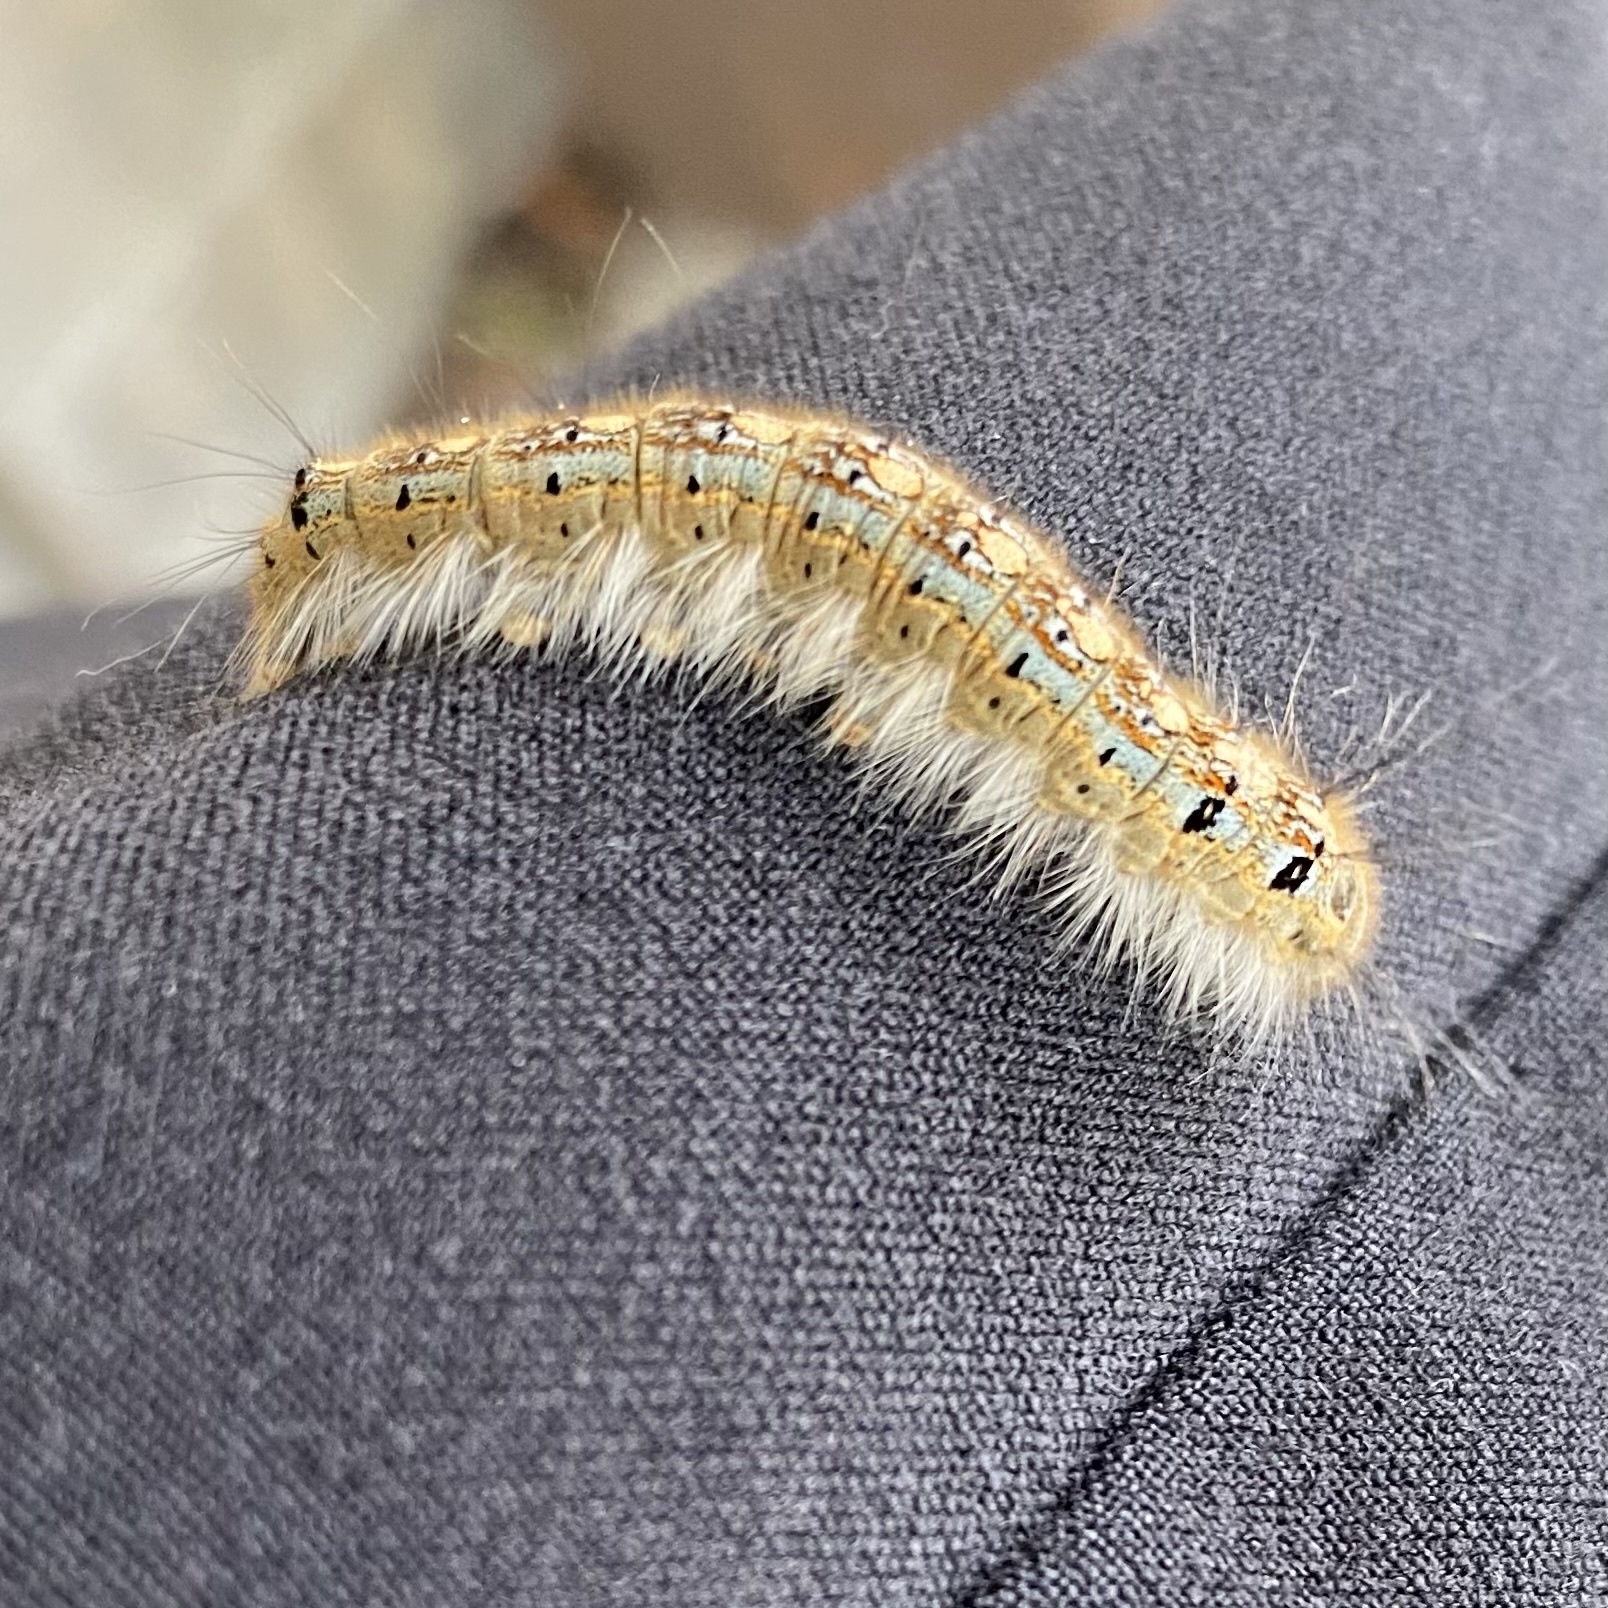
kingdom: Animalia
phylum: Arthropoda
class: Insecta
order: Lepidoptera
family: Lasiocampidae
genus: Malacosoma
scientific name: Malacosoma disstria
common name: Forest tent caterpillar
